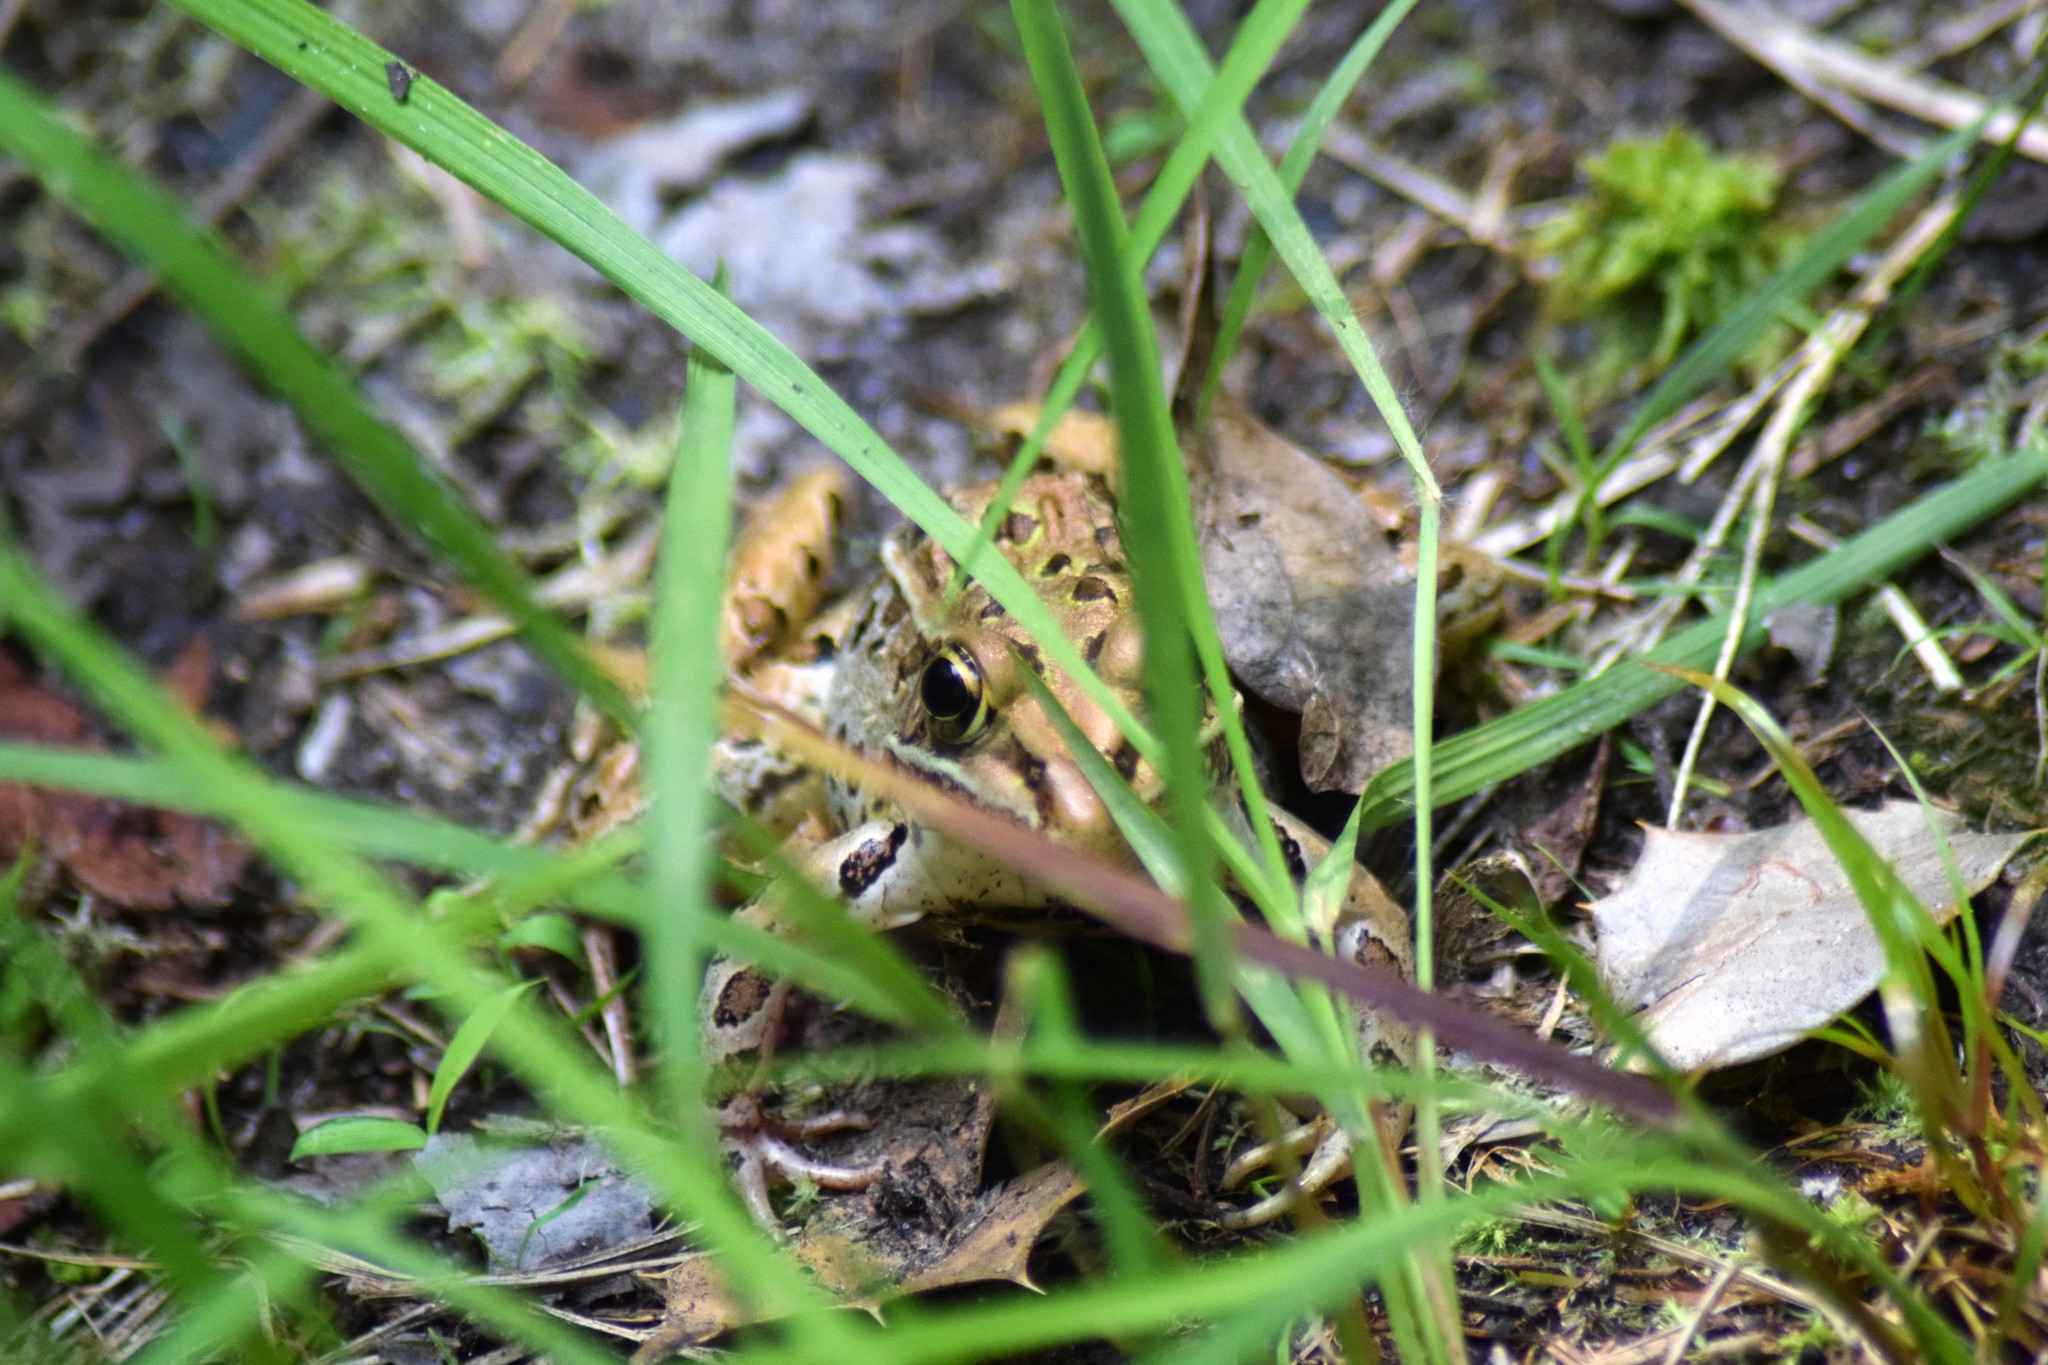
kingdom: Animalia
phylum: Chordata
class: Amphibia
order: Anura
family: Ranidae
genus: Lithobates
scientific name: Lithobates sphenocephalus
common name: Southern leopard frog
